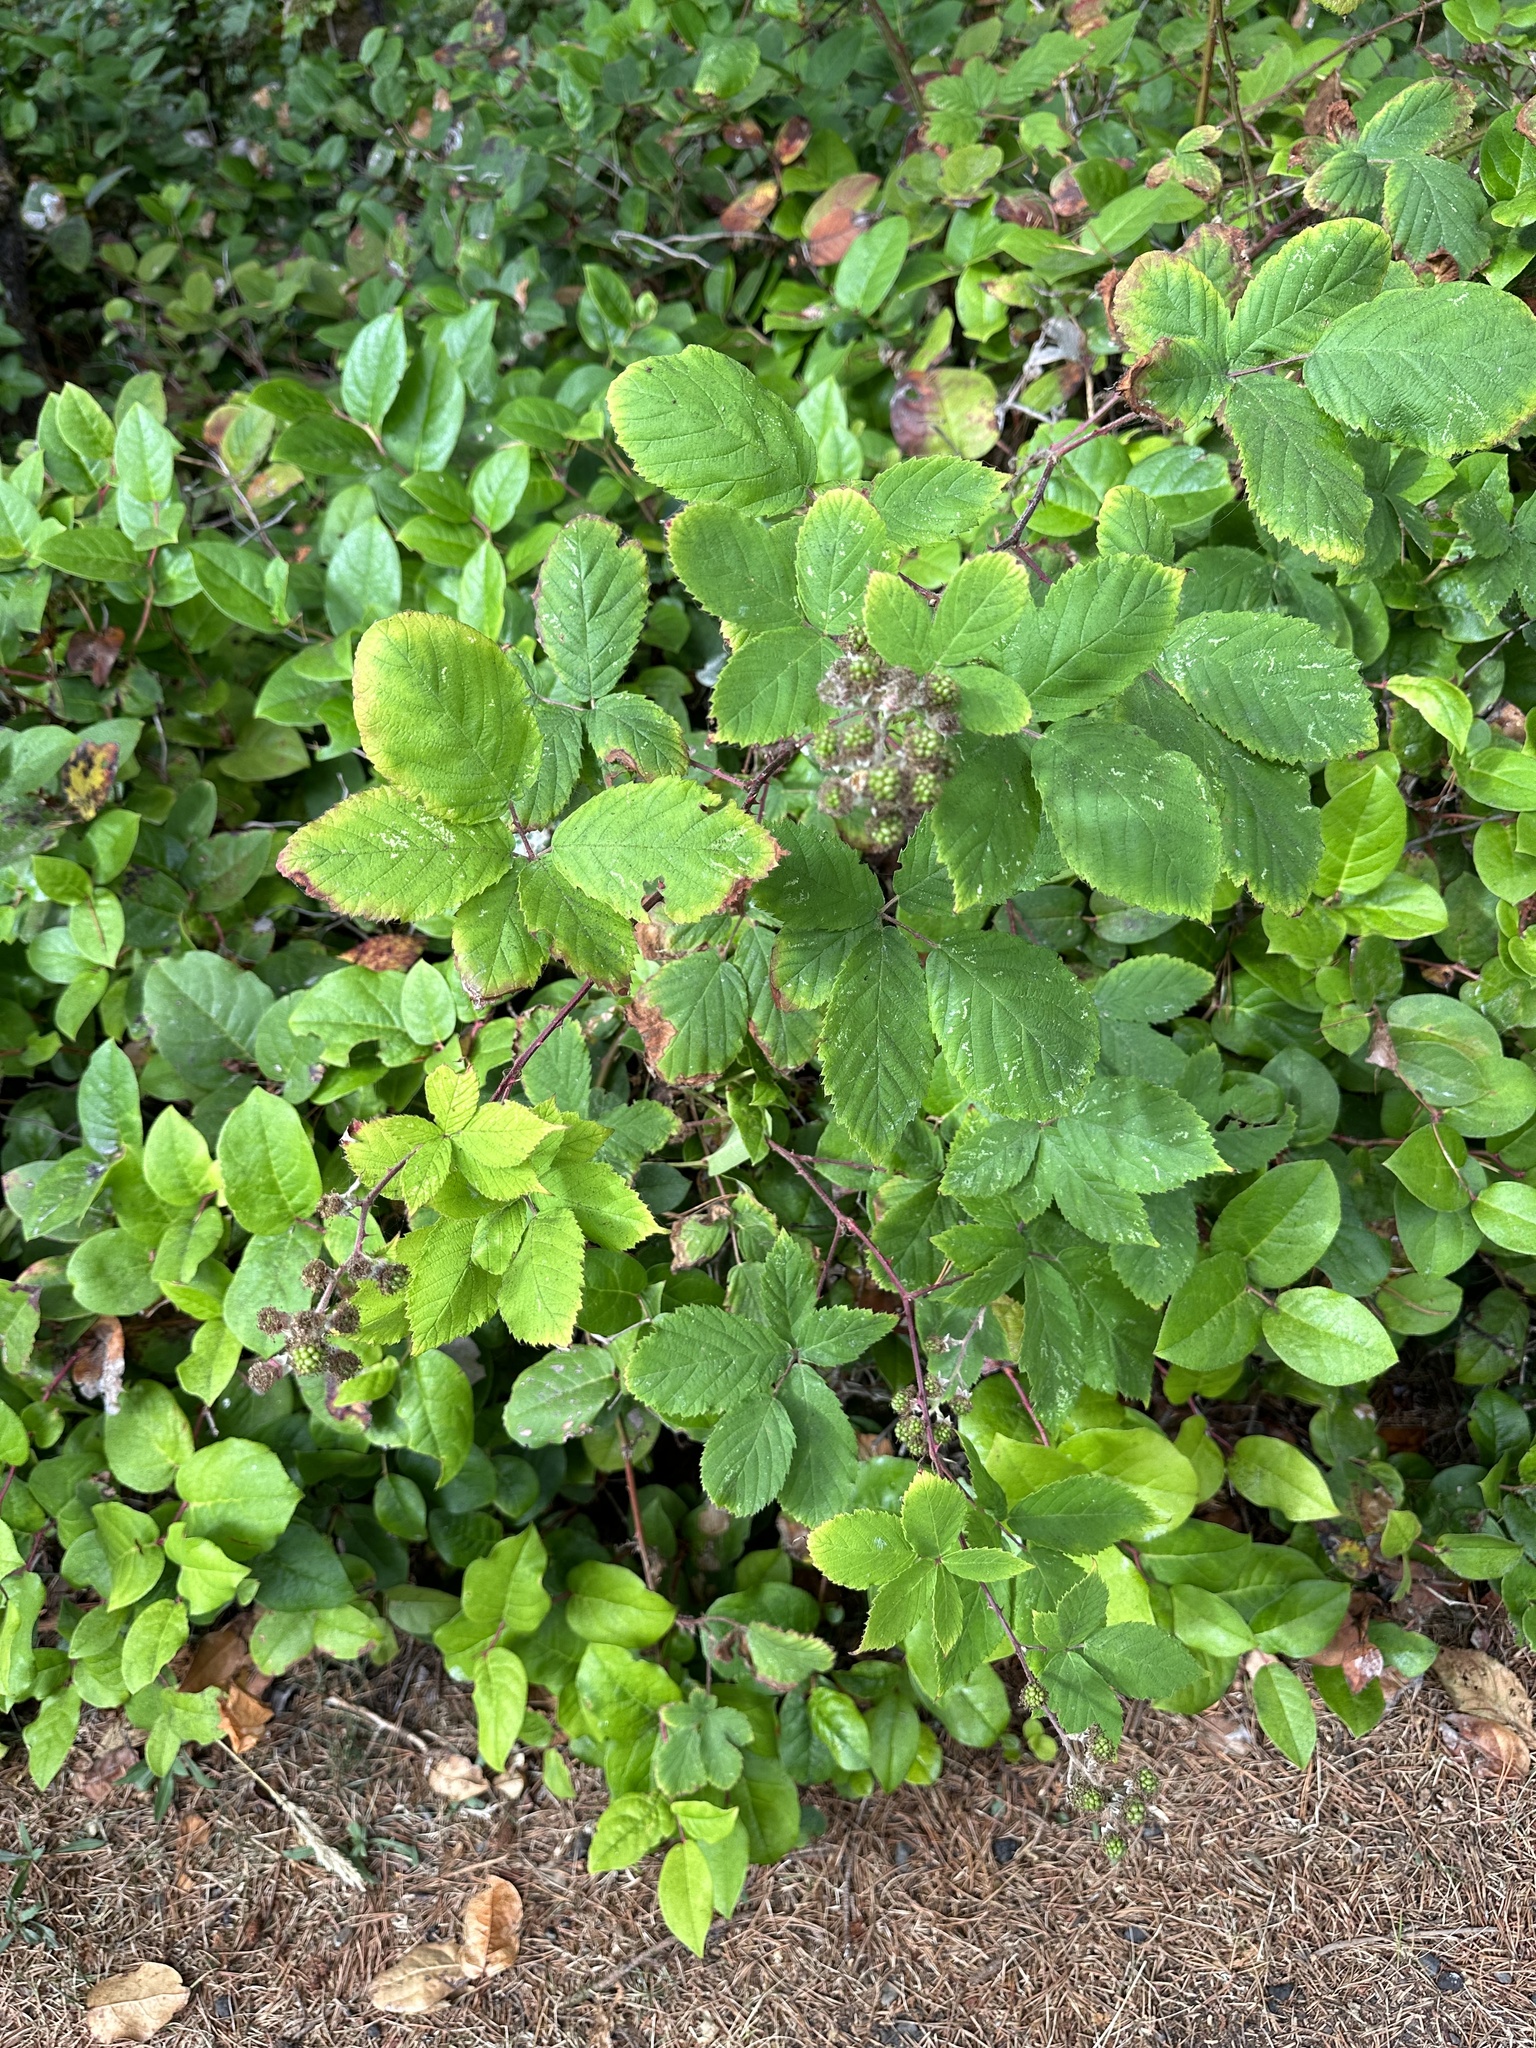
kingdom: Plantae
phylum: Tracheophyta
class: Magnoliopsida
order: Rosales
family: Rosaceae
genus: Rubus
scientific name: Rubus bifrons
